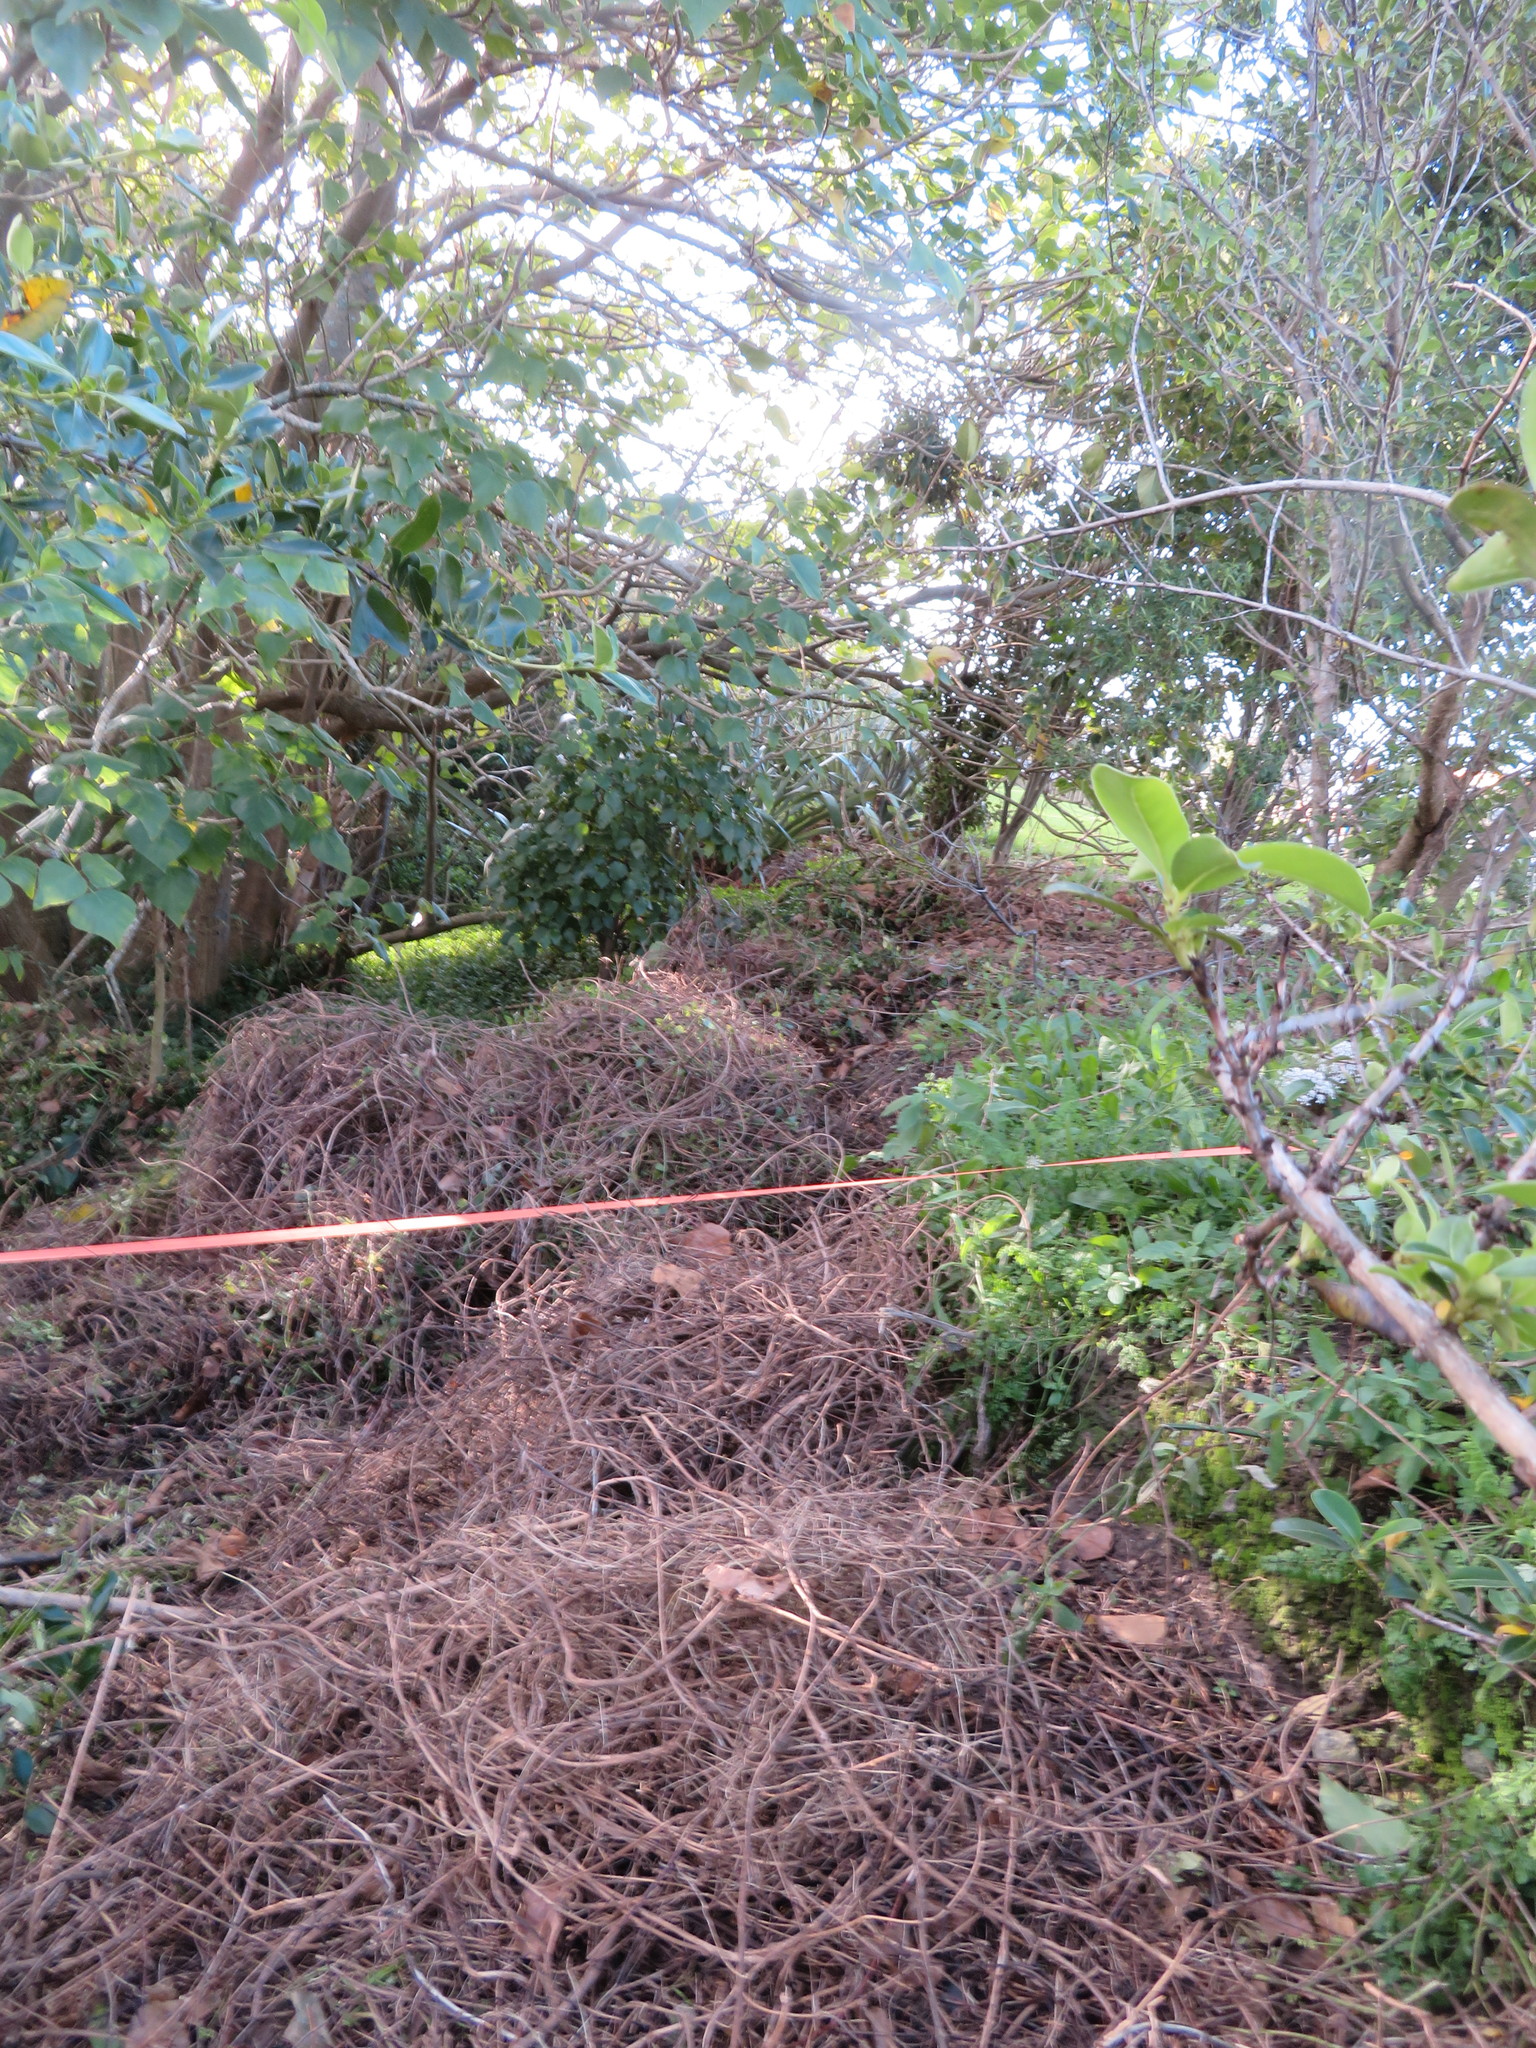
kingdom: Plantae
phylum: Tracheophyta
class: Magnoliopsida
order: Piperales
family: Piperaceae
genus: Macropiper
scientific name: Macropiper excelsum
